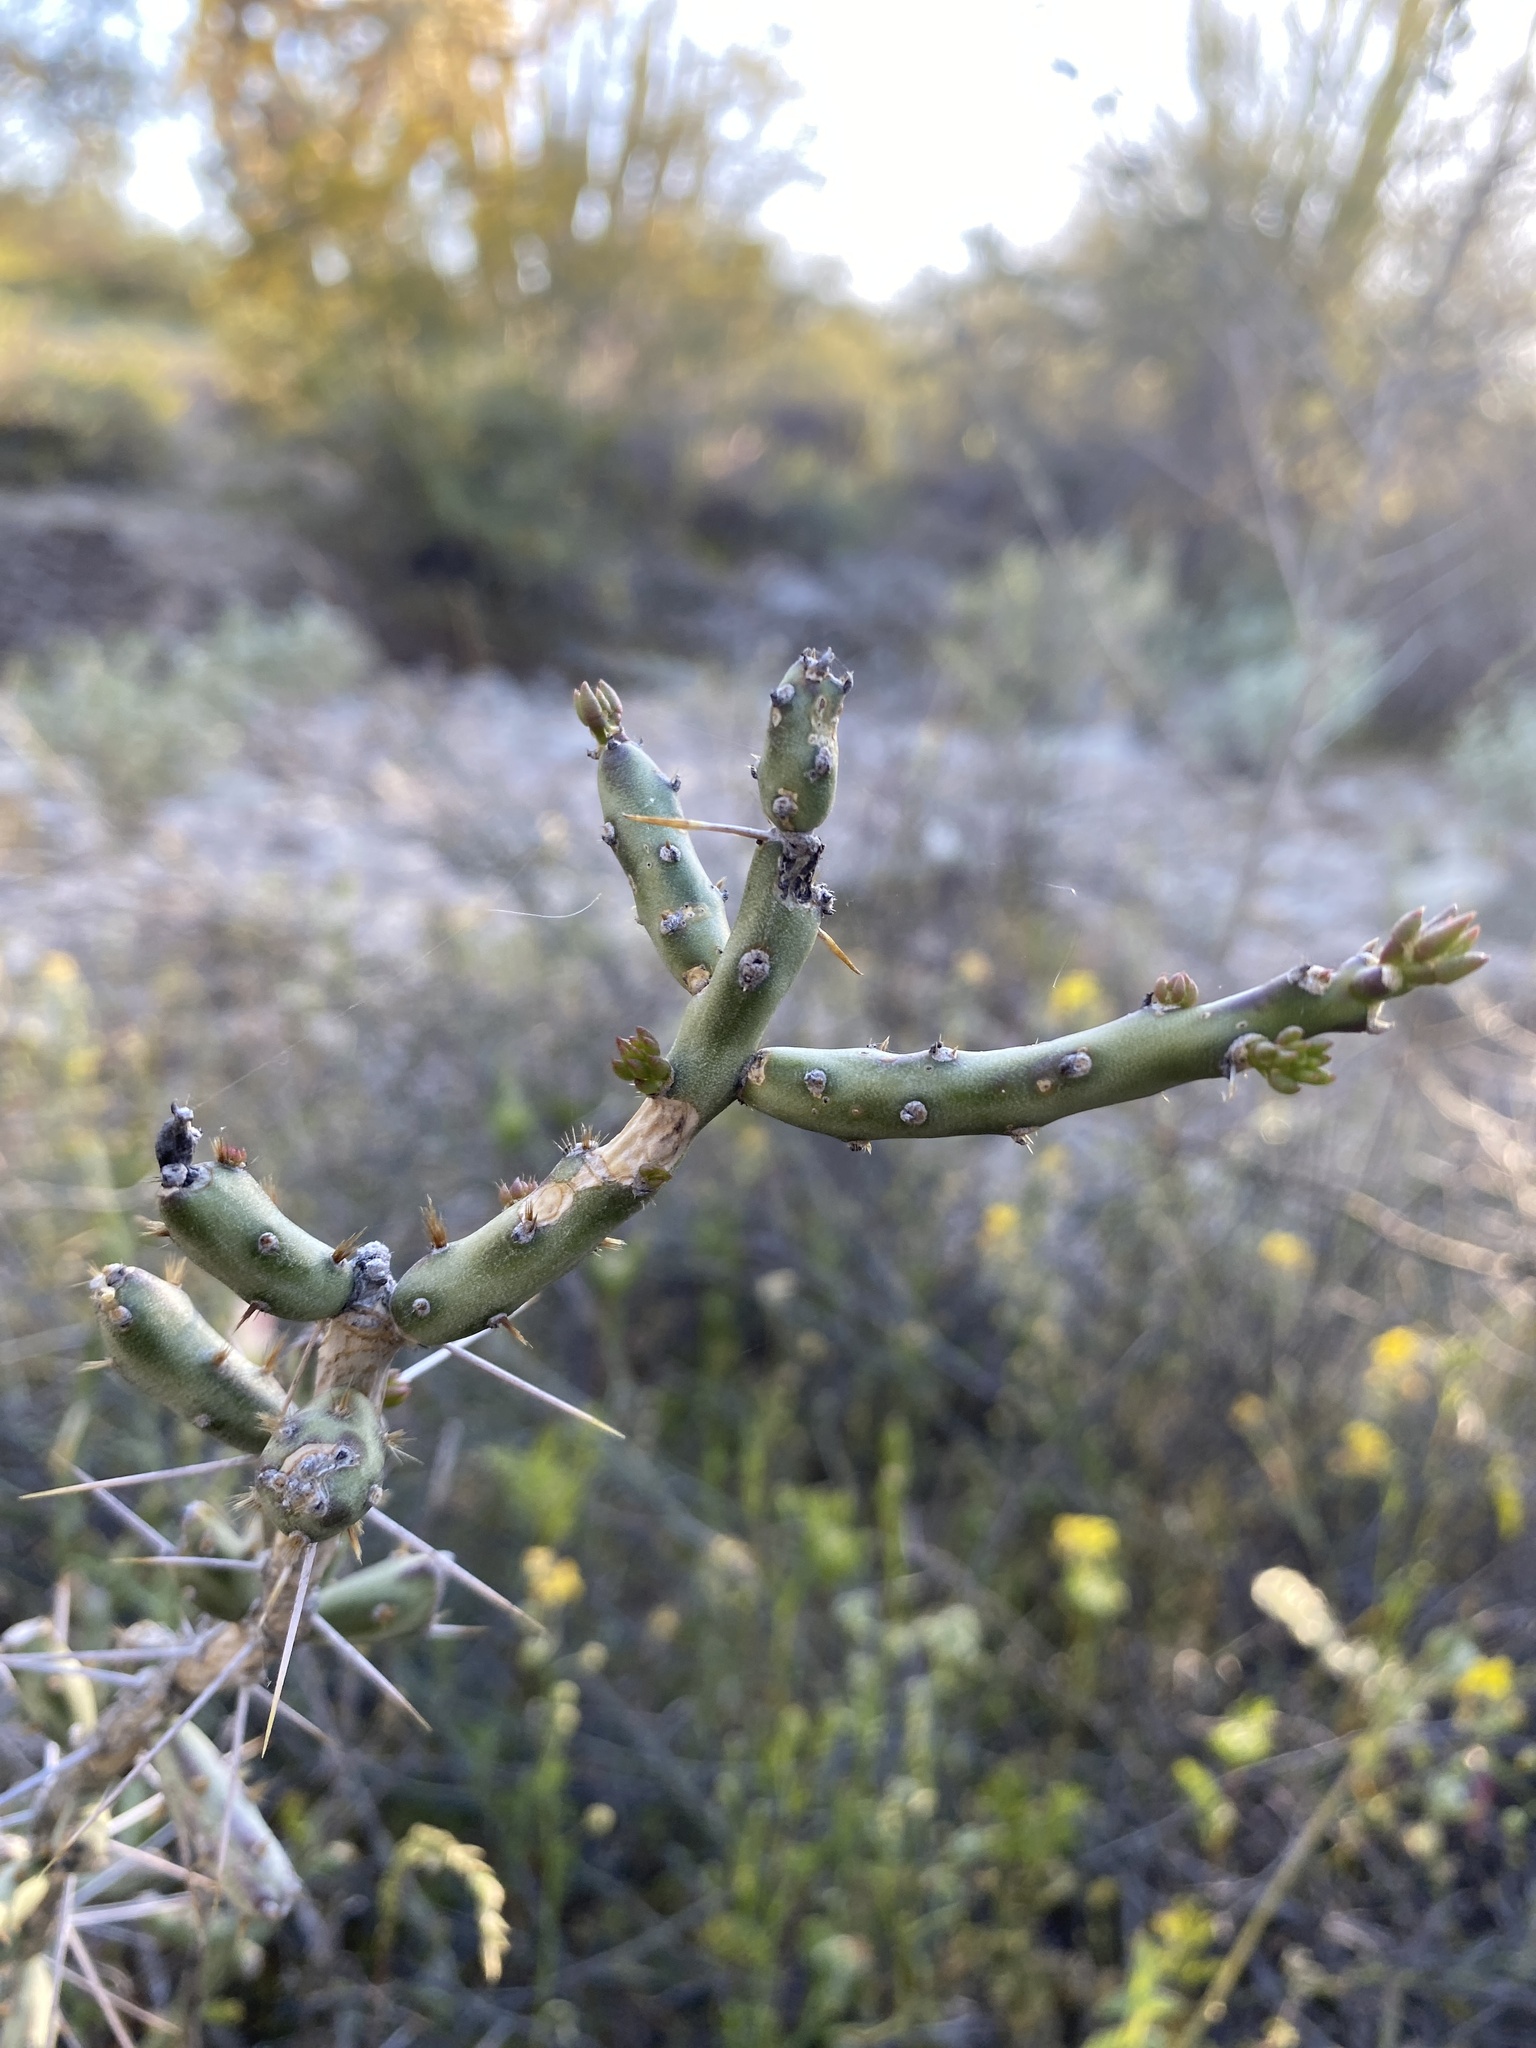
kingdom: Plantae
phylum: Tracheophyta
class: Magnoliopsida
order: Caryophyllales
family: Cactaceae
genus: Cylindropuntia
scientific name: Cylindropuntia leptocaulis
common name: Christmas cactus
